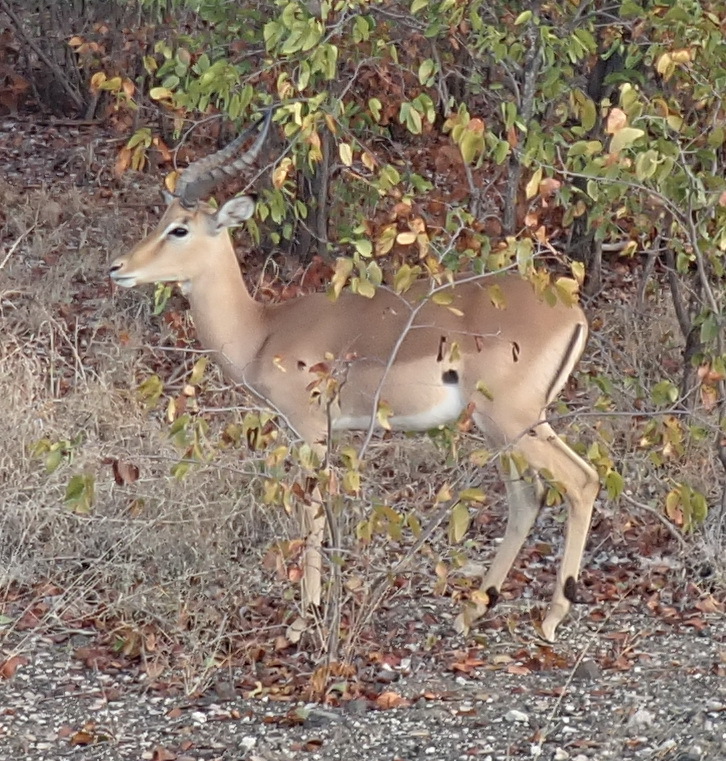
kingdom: Animalia
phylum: Chordata
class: Mammalia
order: Artiodactyla
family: Bovidae
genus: Aepyceros
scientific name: Aepyceros melampus
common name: Impala
